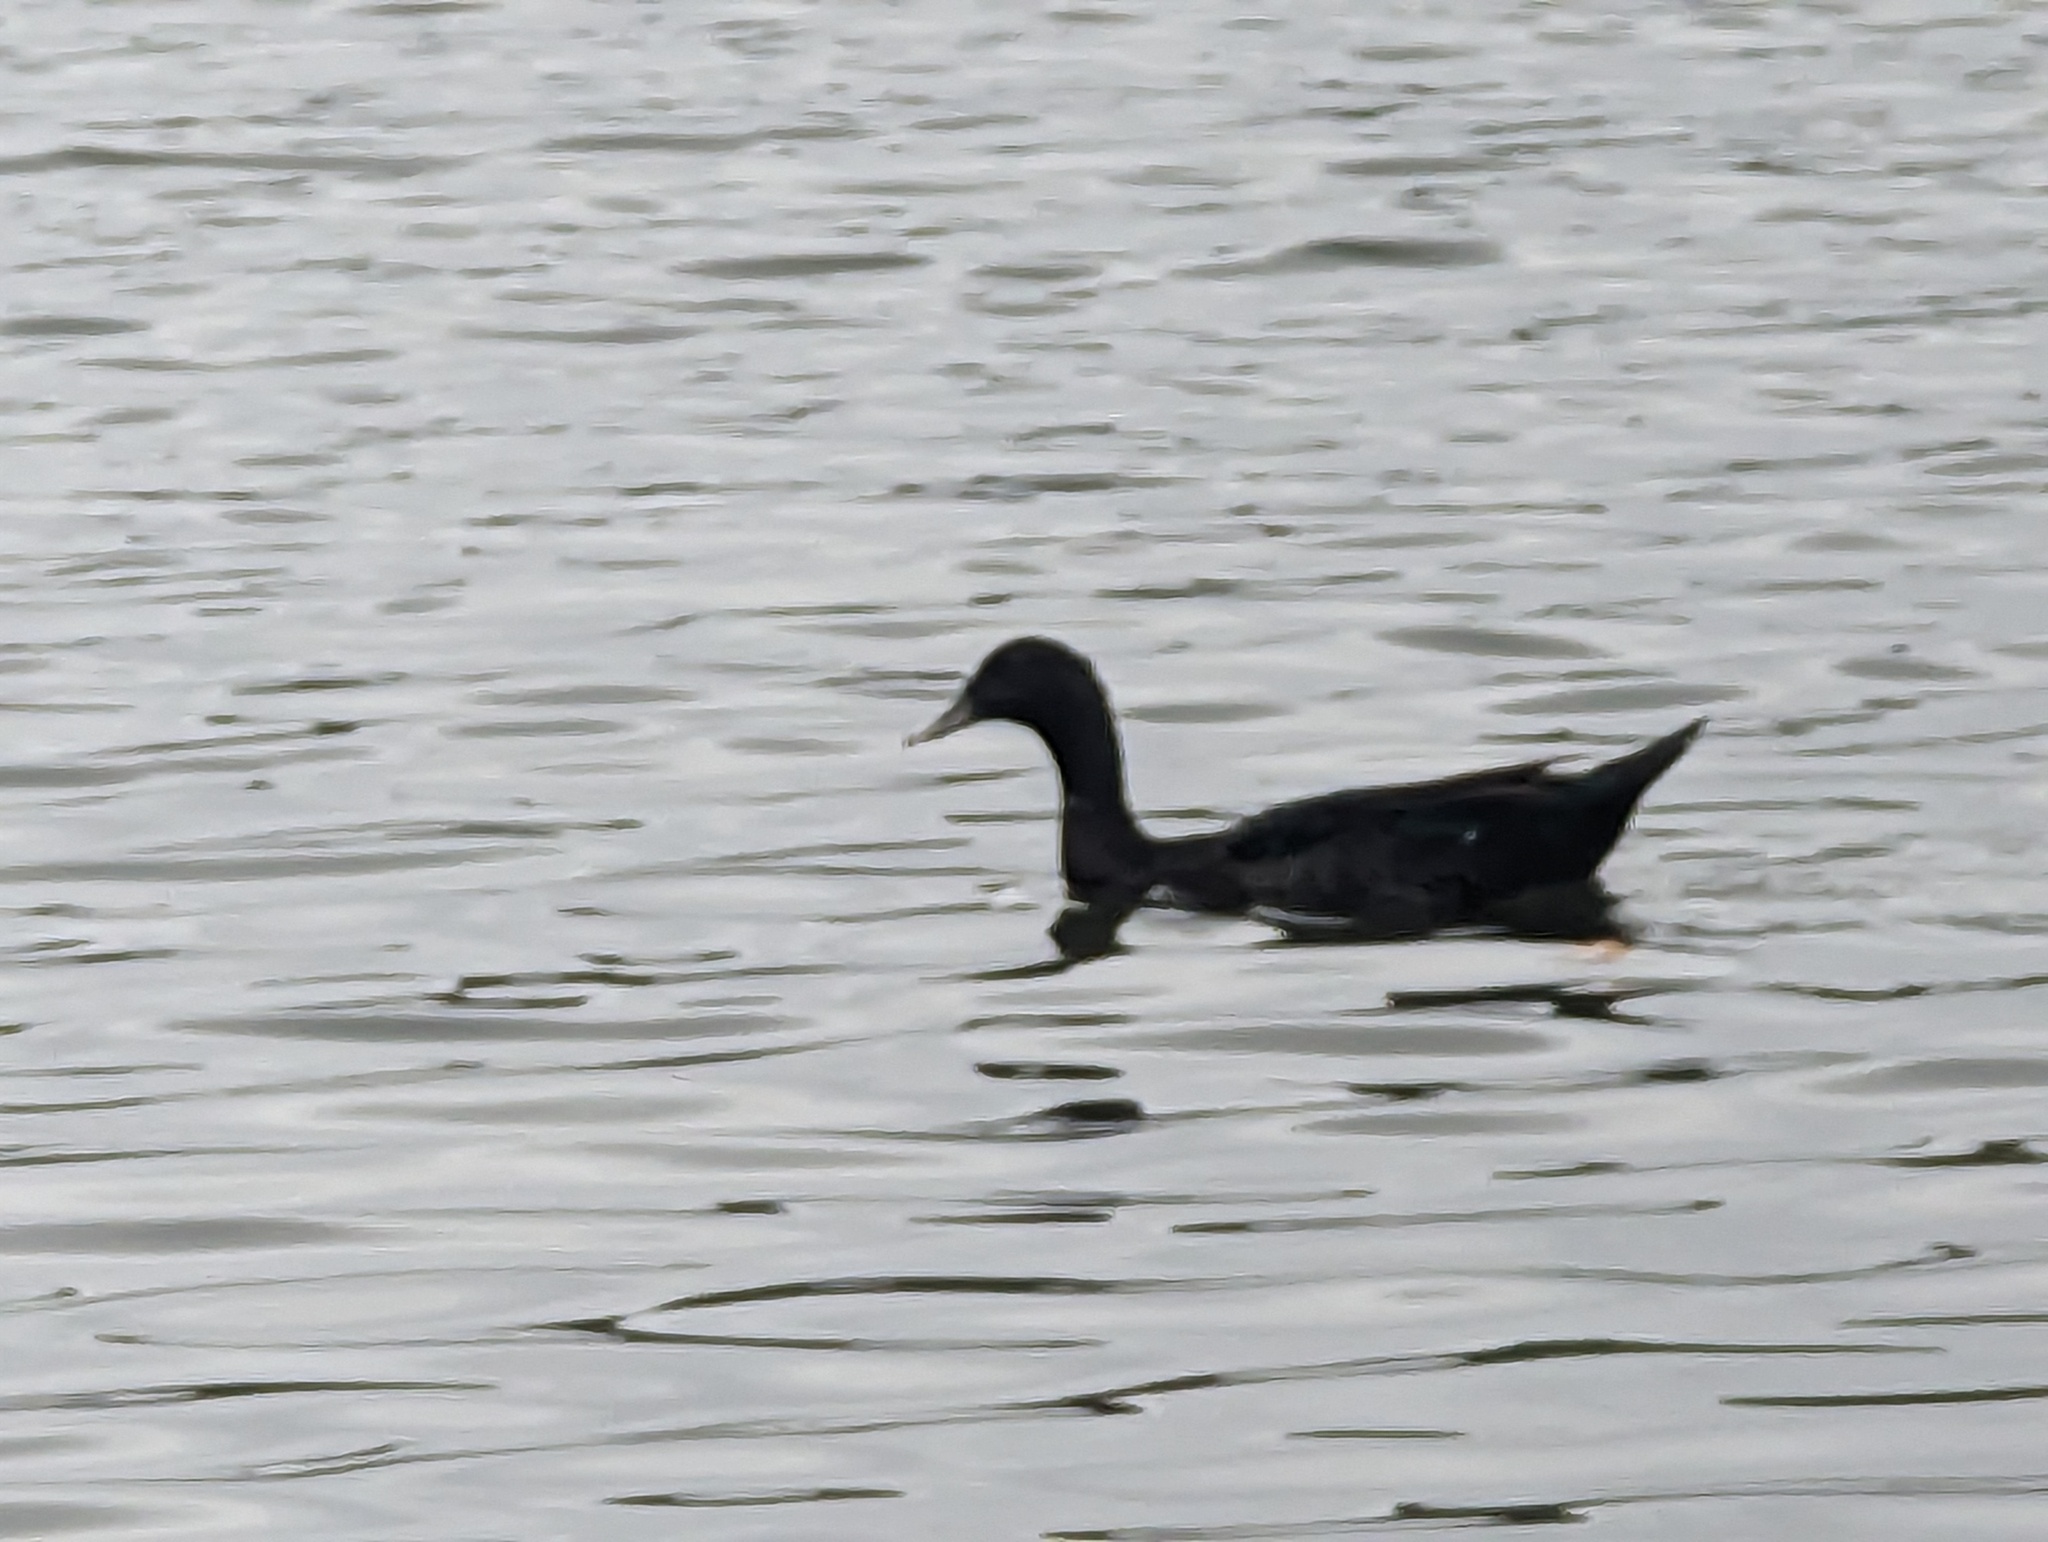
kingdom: Animalia
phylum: Chordata
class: Aves
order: Anseriformes
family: Anatidae
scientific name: Anatidae
